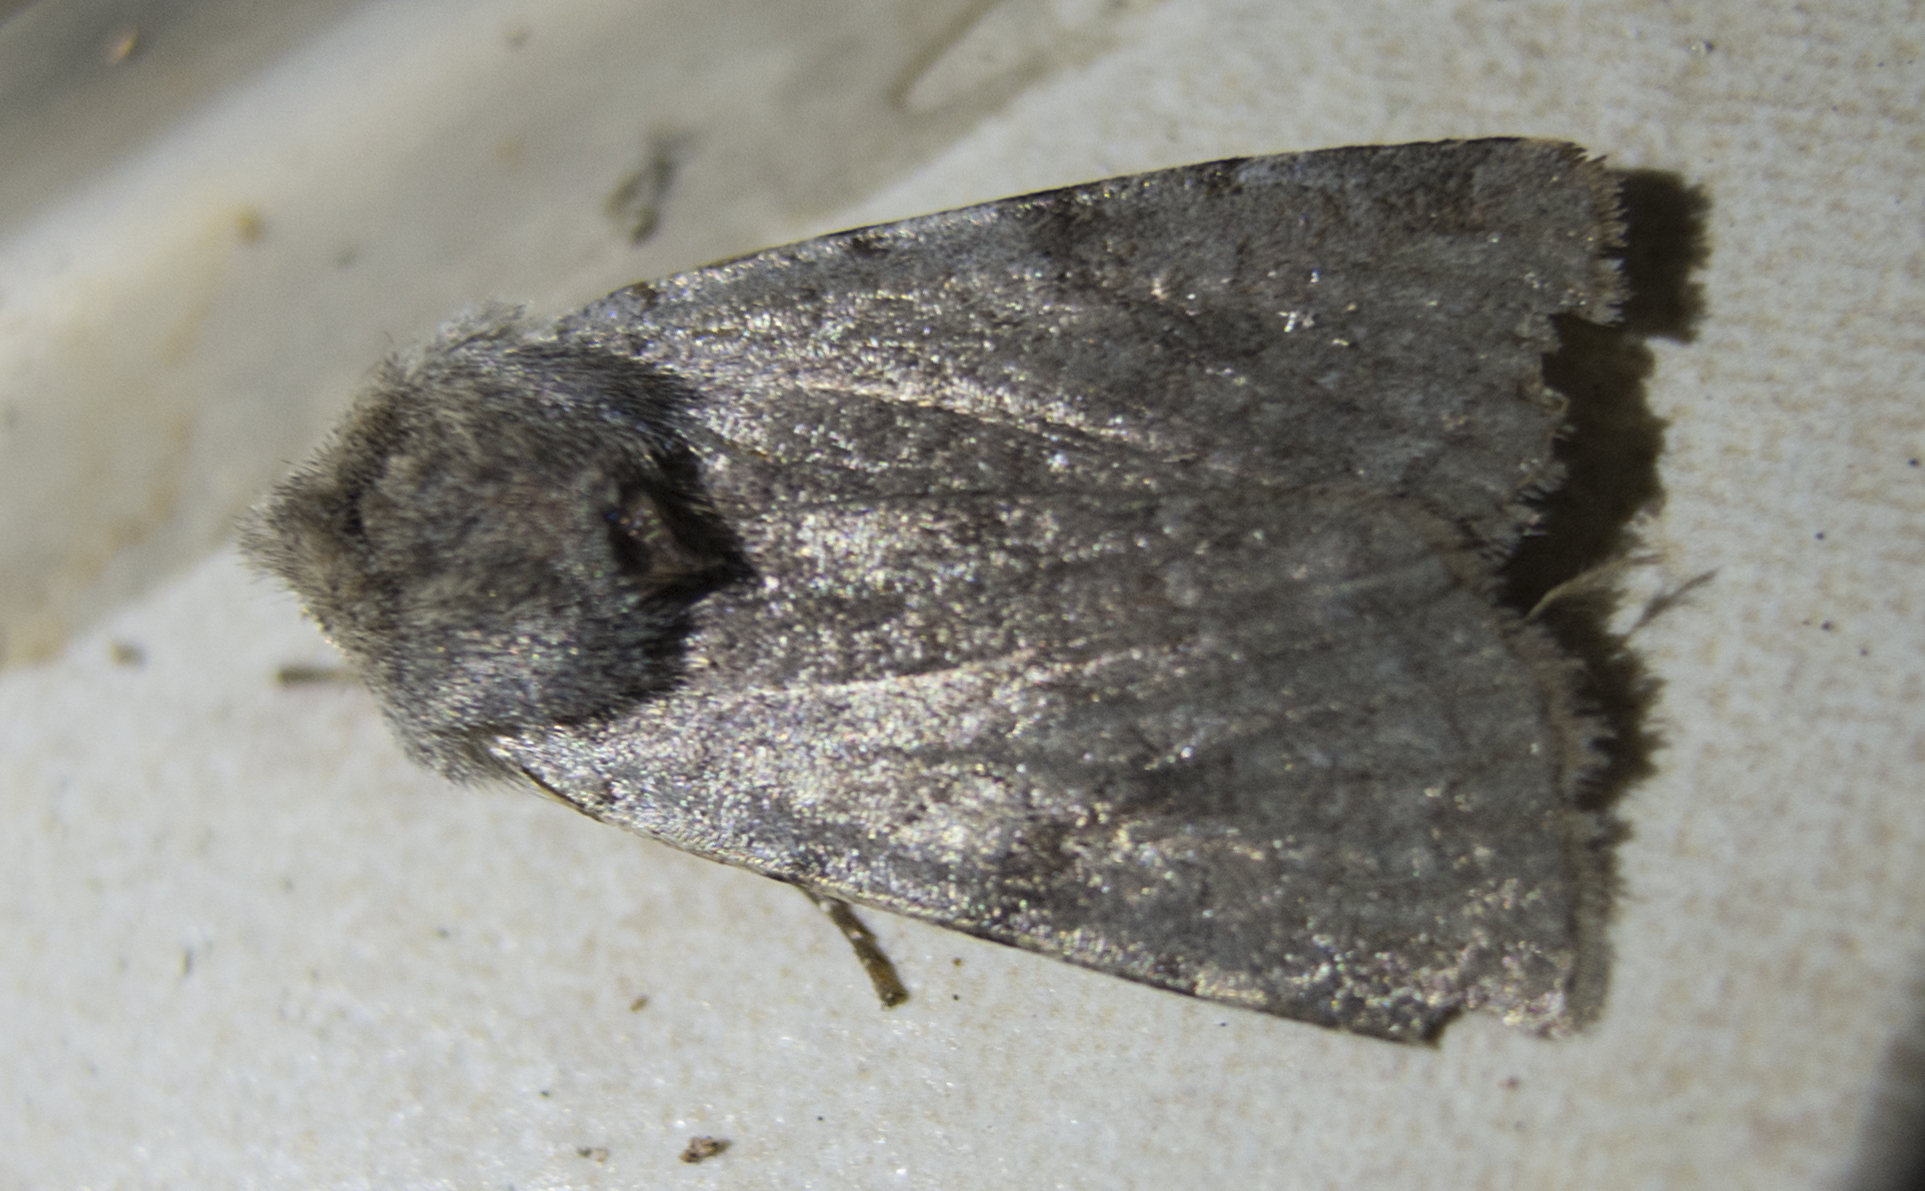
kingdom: Animalia
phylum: Arthropoda
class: Insecta
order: Lepidoptera
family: Noctuidae
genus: Cerastis
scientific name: Cerastis rubricosa
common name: Red chestnut
